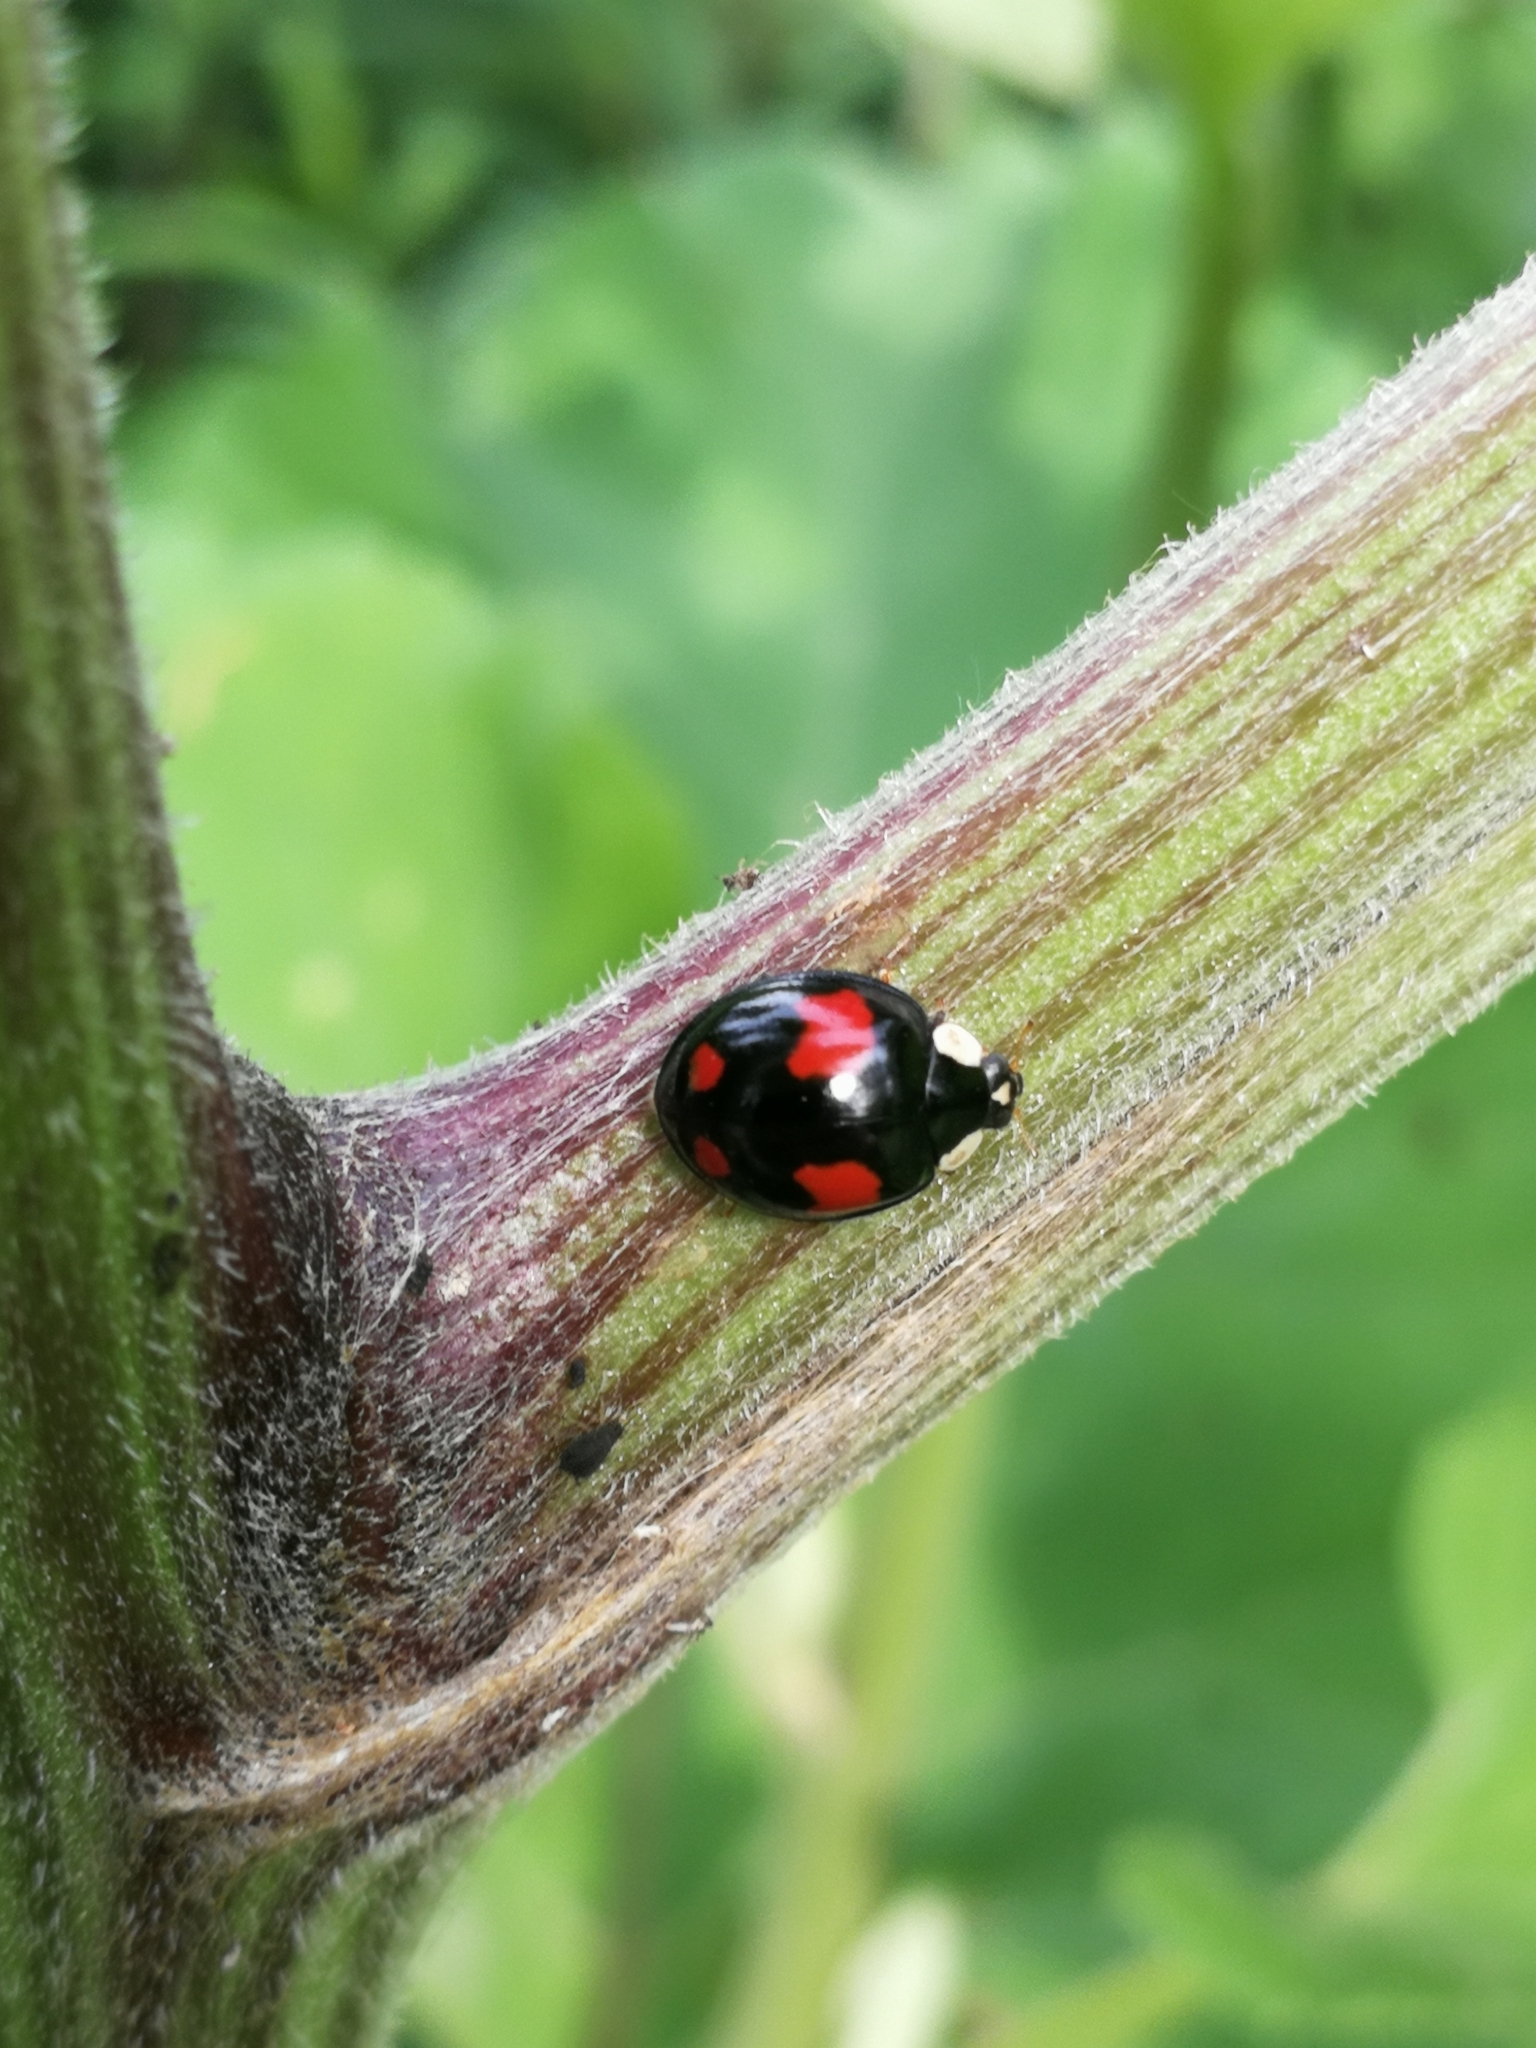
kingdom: Animalia
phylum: Arthropoda
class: Insecta
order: Coleoptera
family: Coccinellidae
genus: Harmonia
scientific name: Harmonia axyridis
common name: Harlequin ladybird
